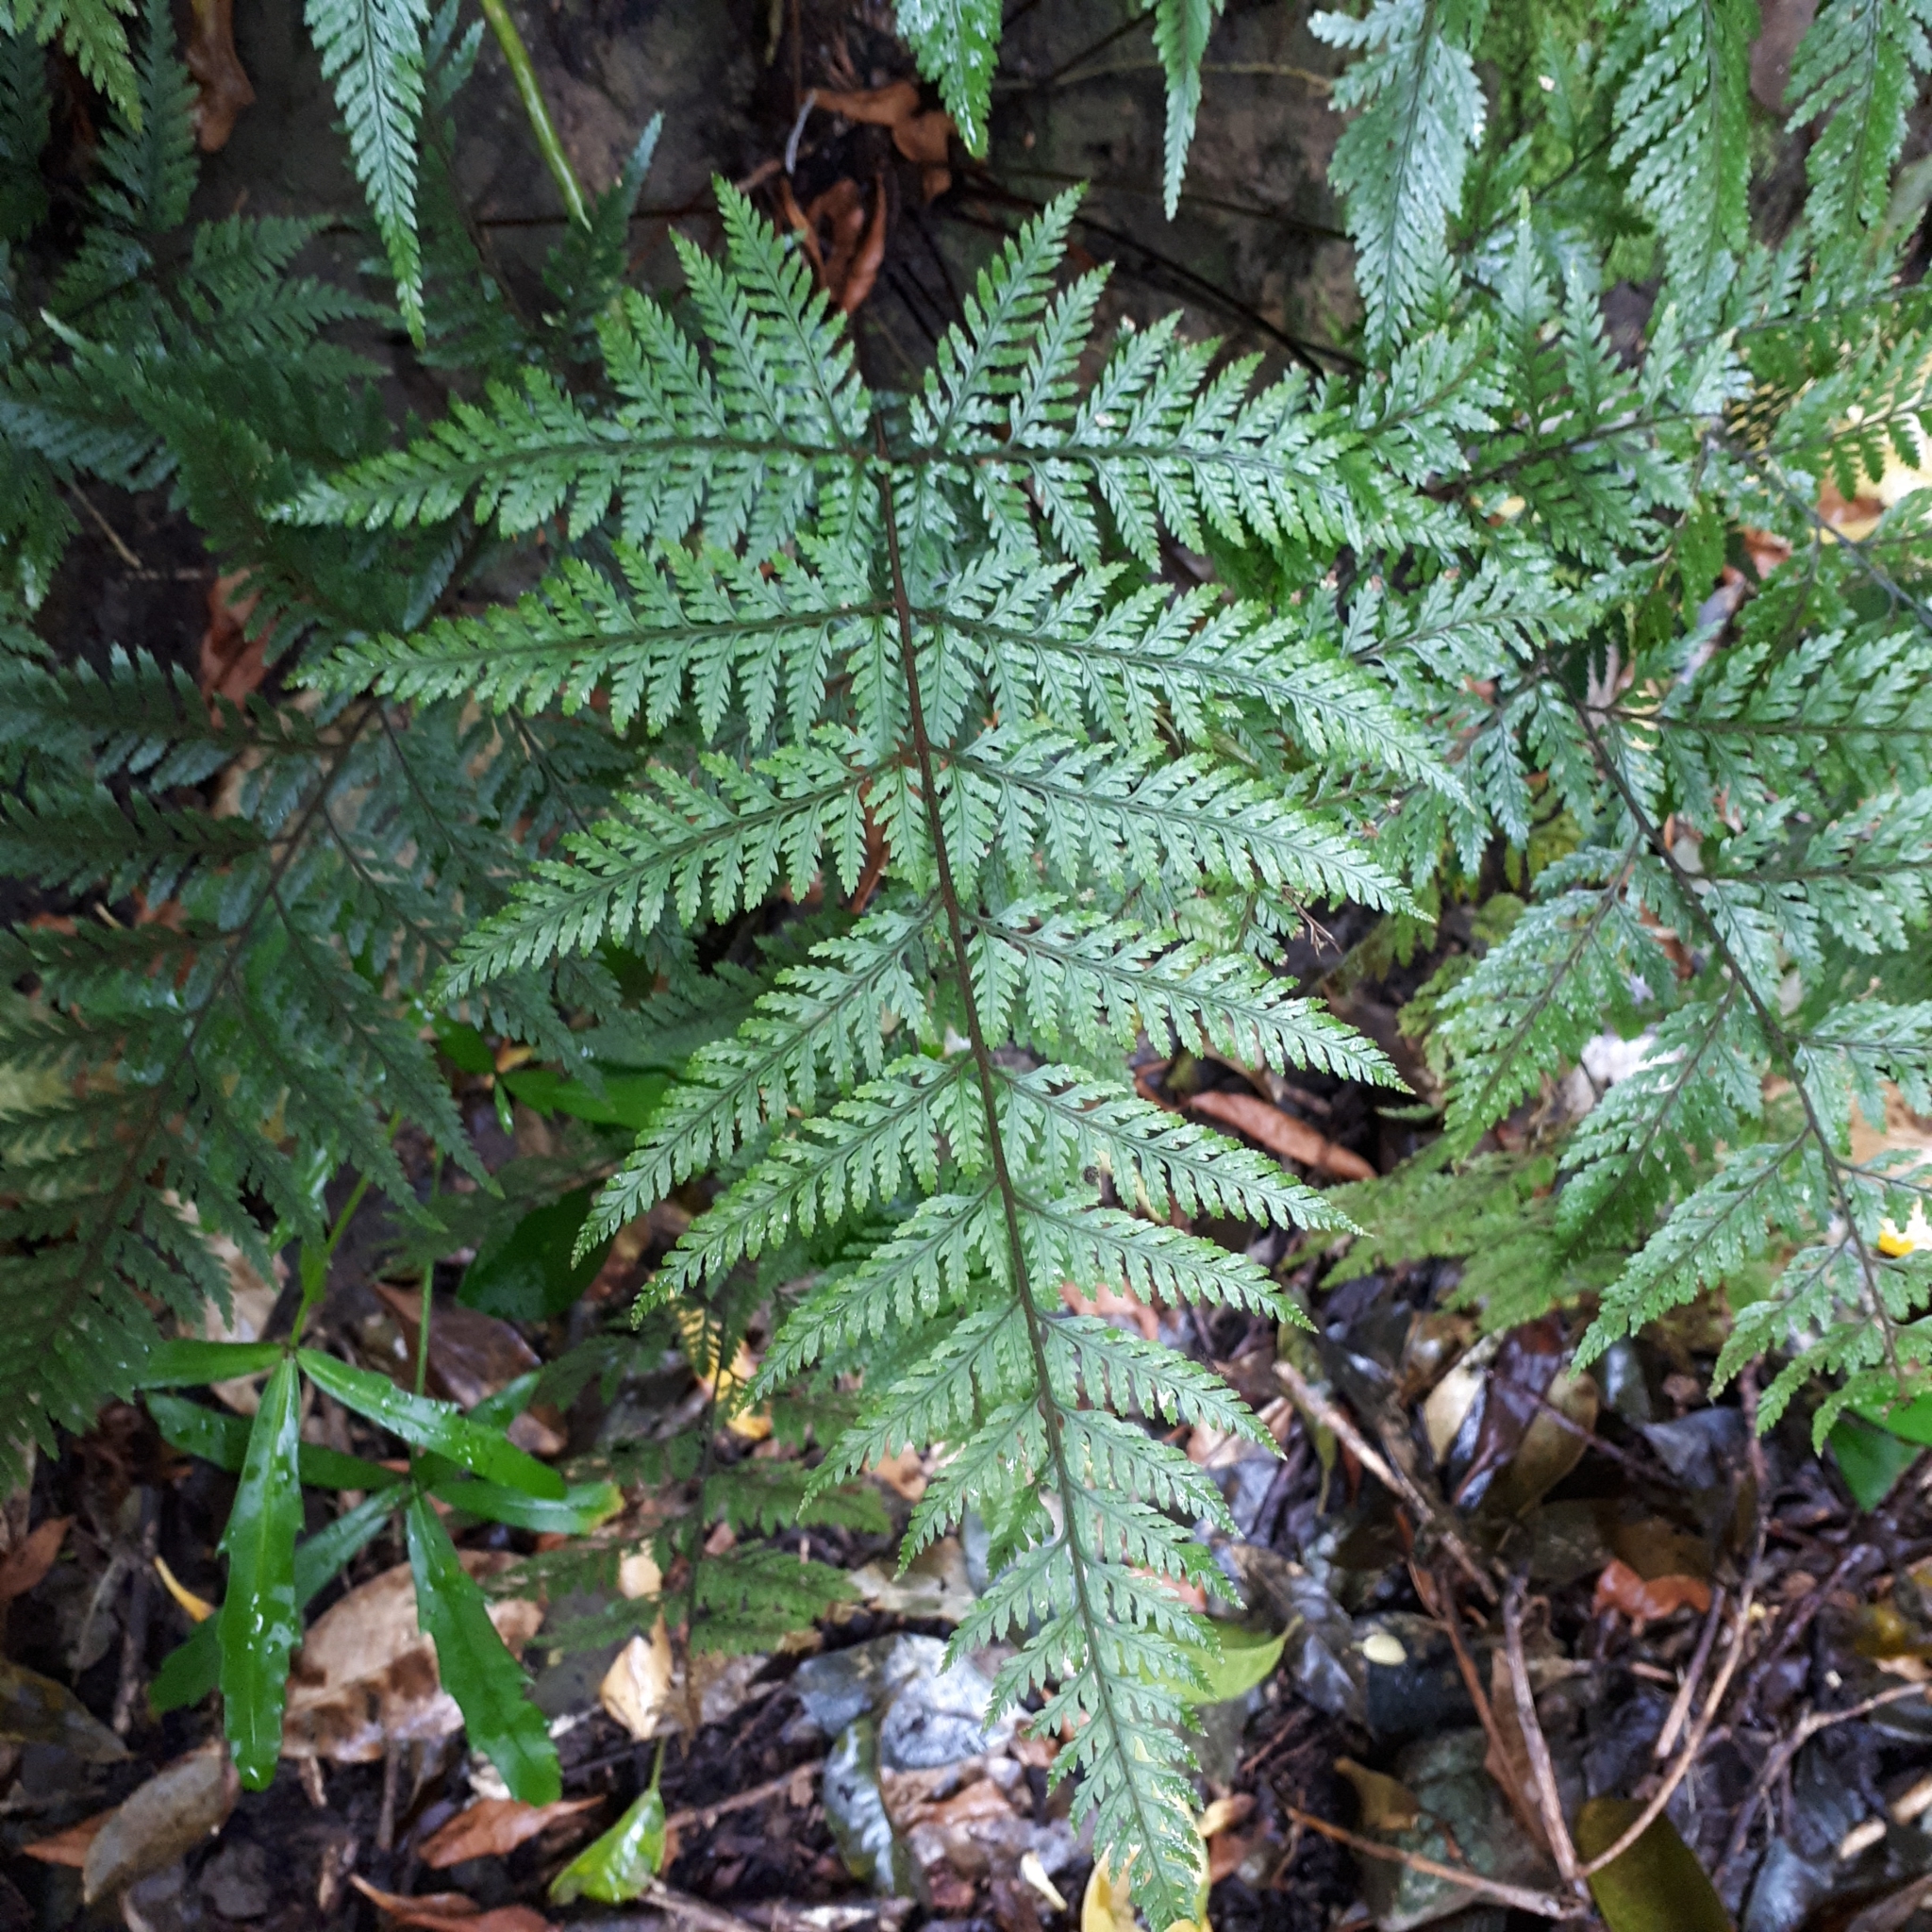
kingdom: Plantae
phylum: Tracheophyta
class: Polypodiopsida
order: Polypodiales
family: Dryopteridaceae
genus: Parapolystichum
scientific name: Parapolystichum glabellum
